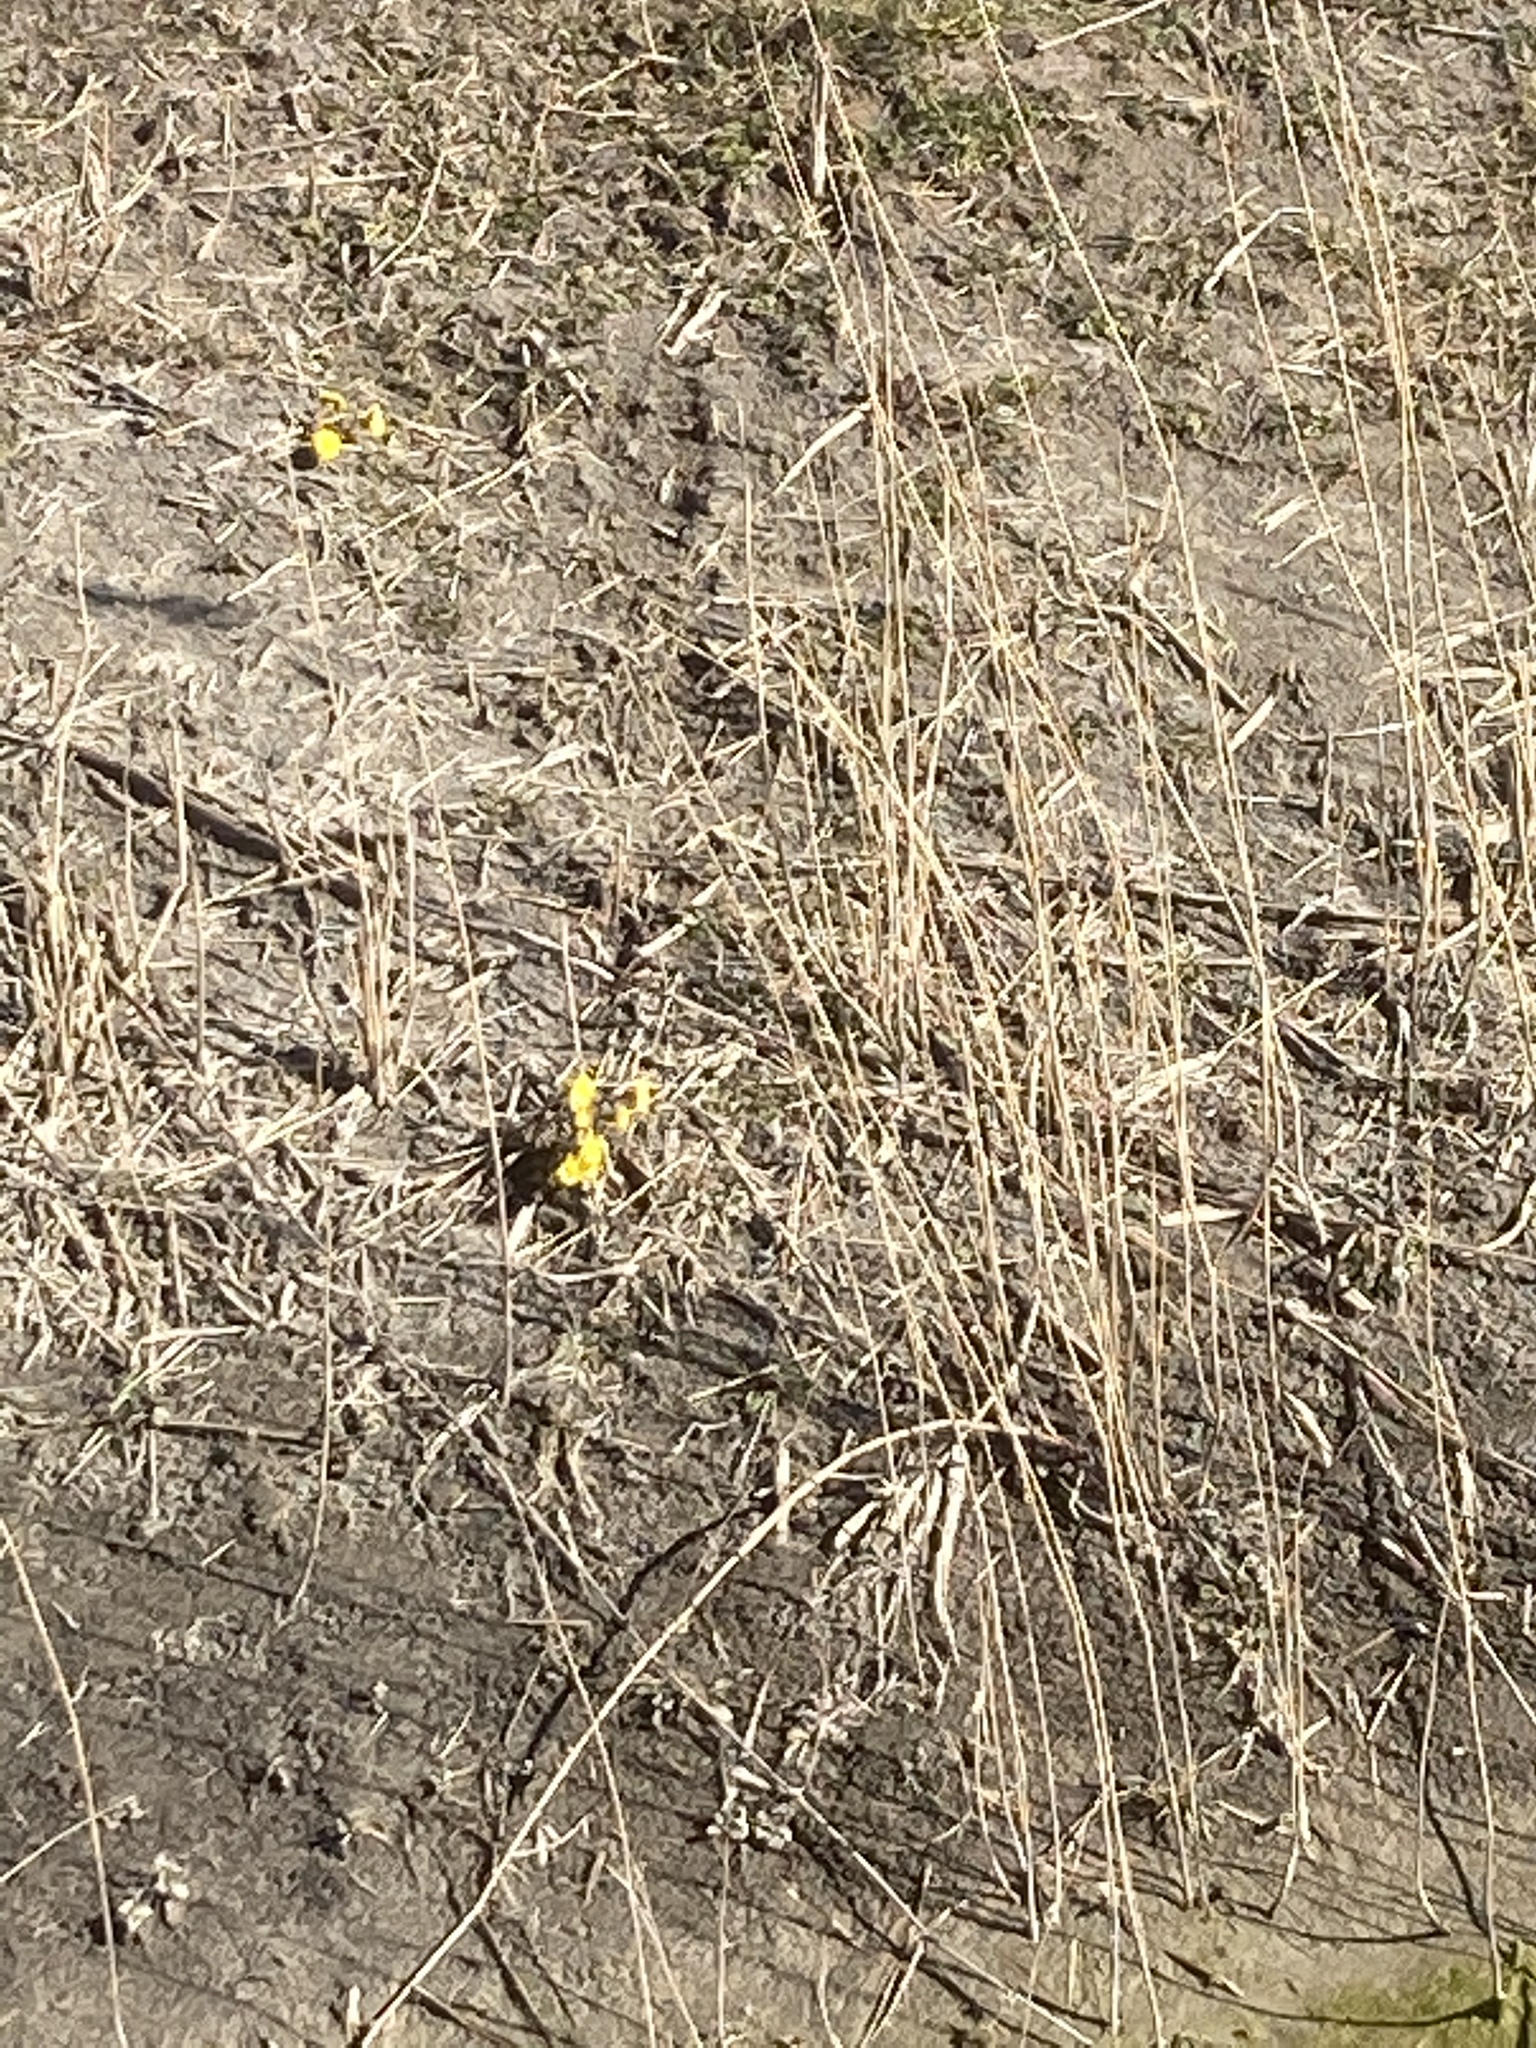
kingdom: Plantae
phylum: Tracheophyta
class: Magnoliopsida
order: Asterales
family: Asteraceae
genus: Tussilago
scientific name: Tussilago farfara
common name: Coltsfoot
